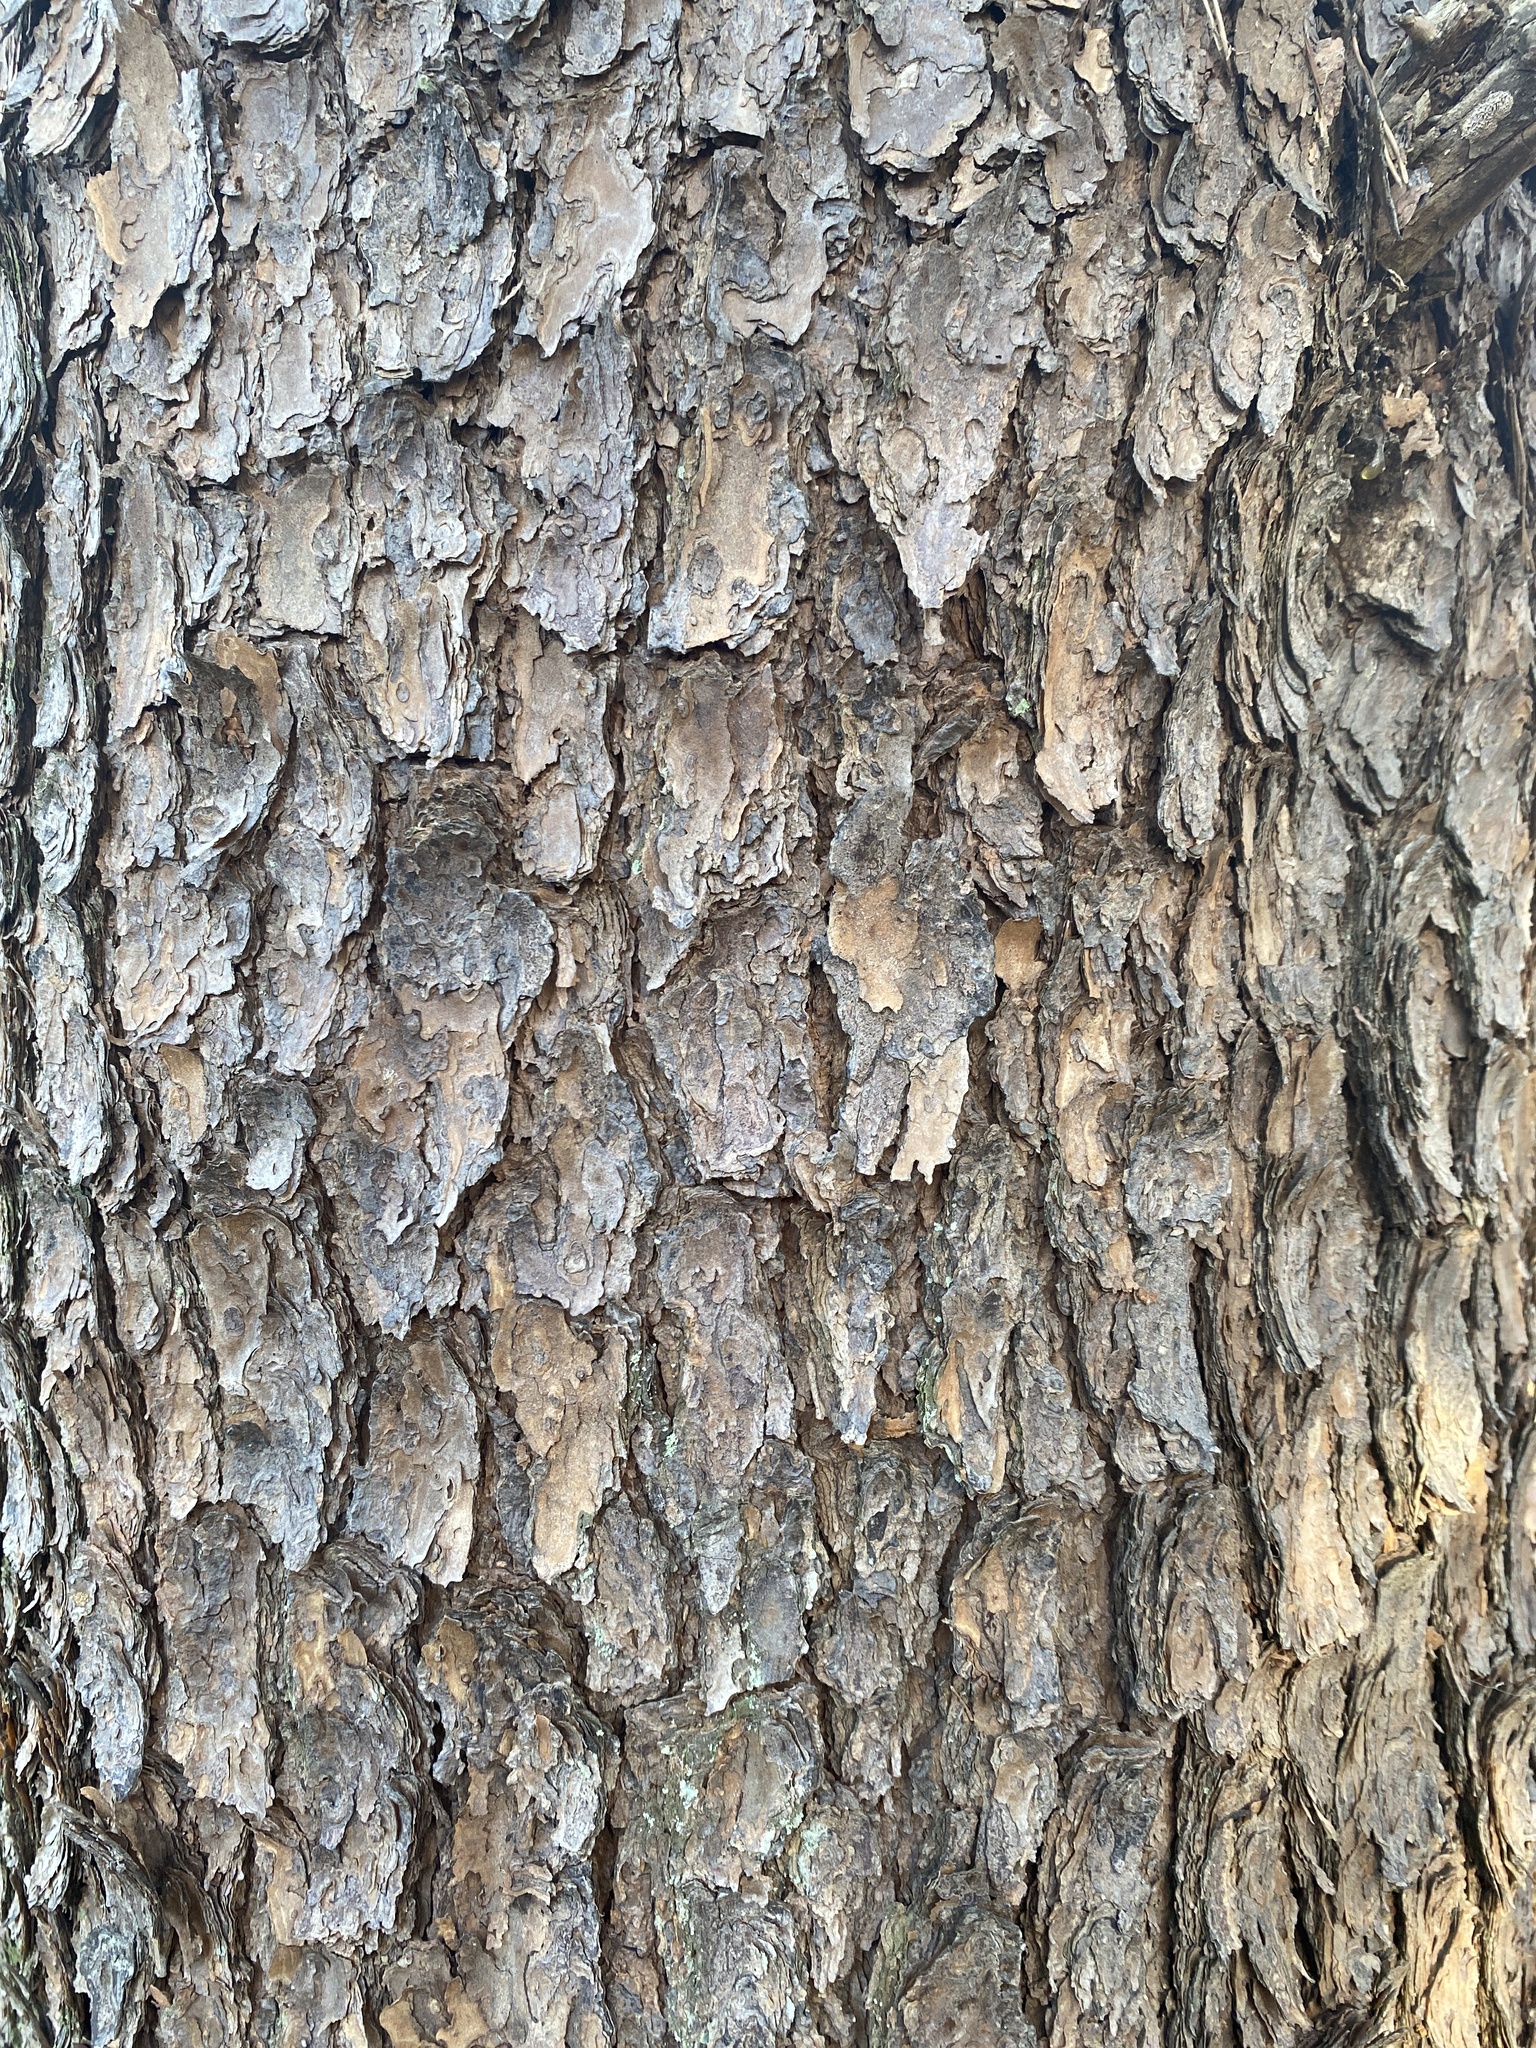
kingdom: Plantae
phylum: Tracheophyta
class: Pinopsida
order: Pinales
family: Pinaceae
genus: Pinus
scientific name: Pinus virginiana
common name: Scrub pine
